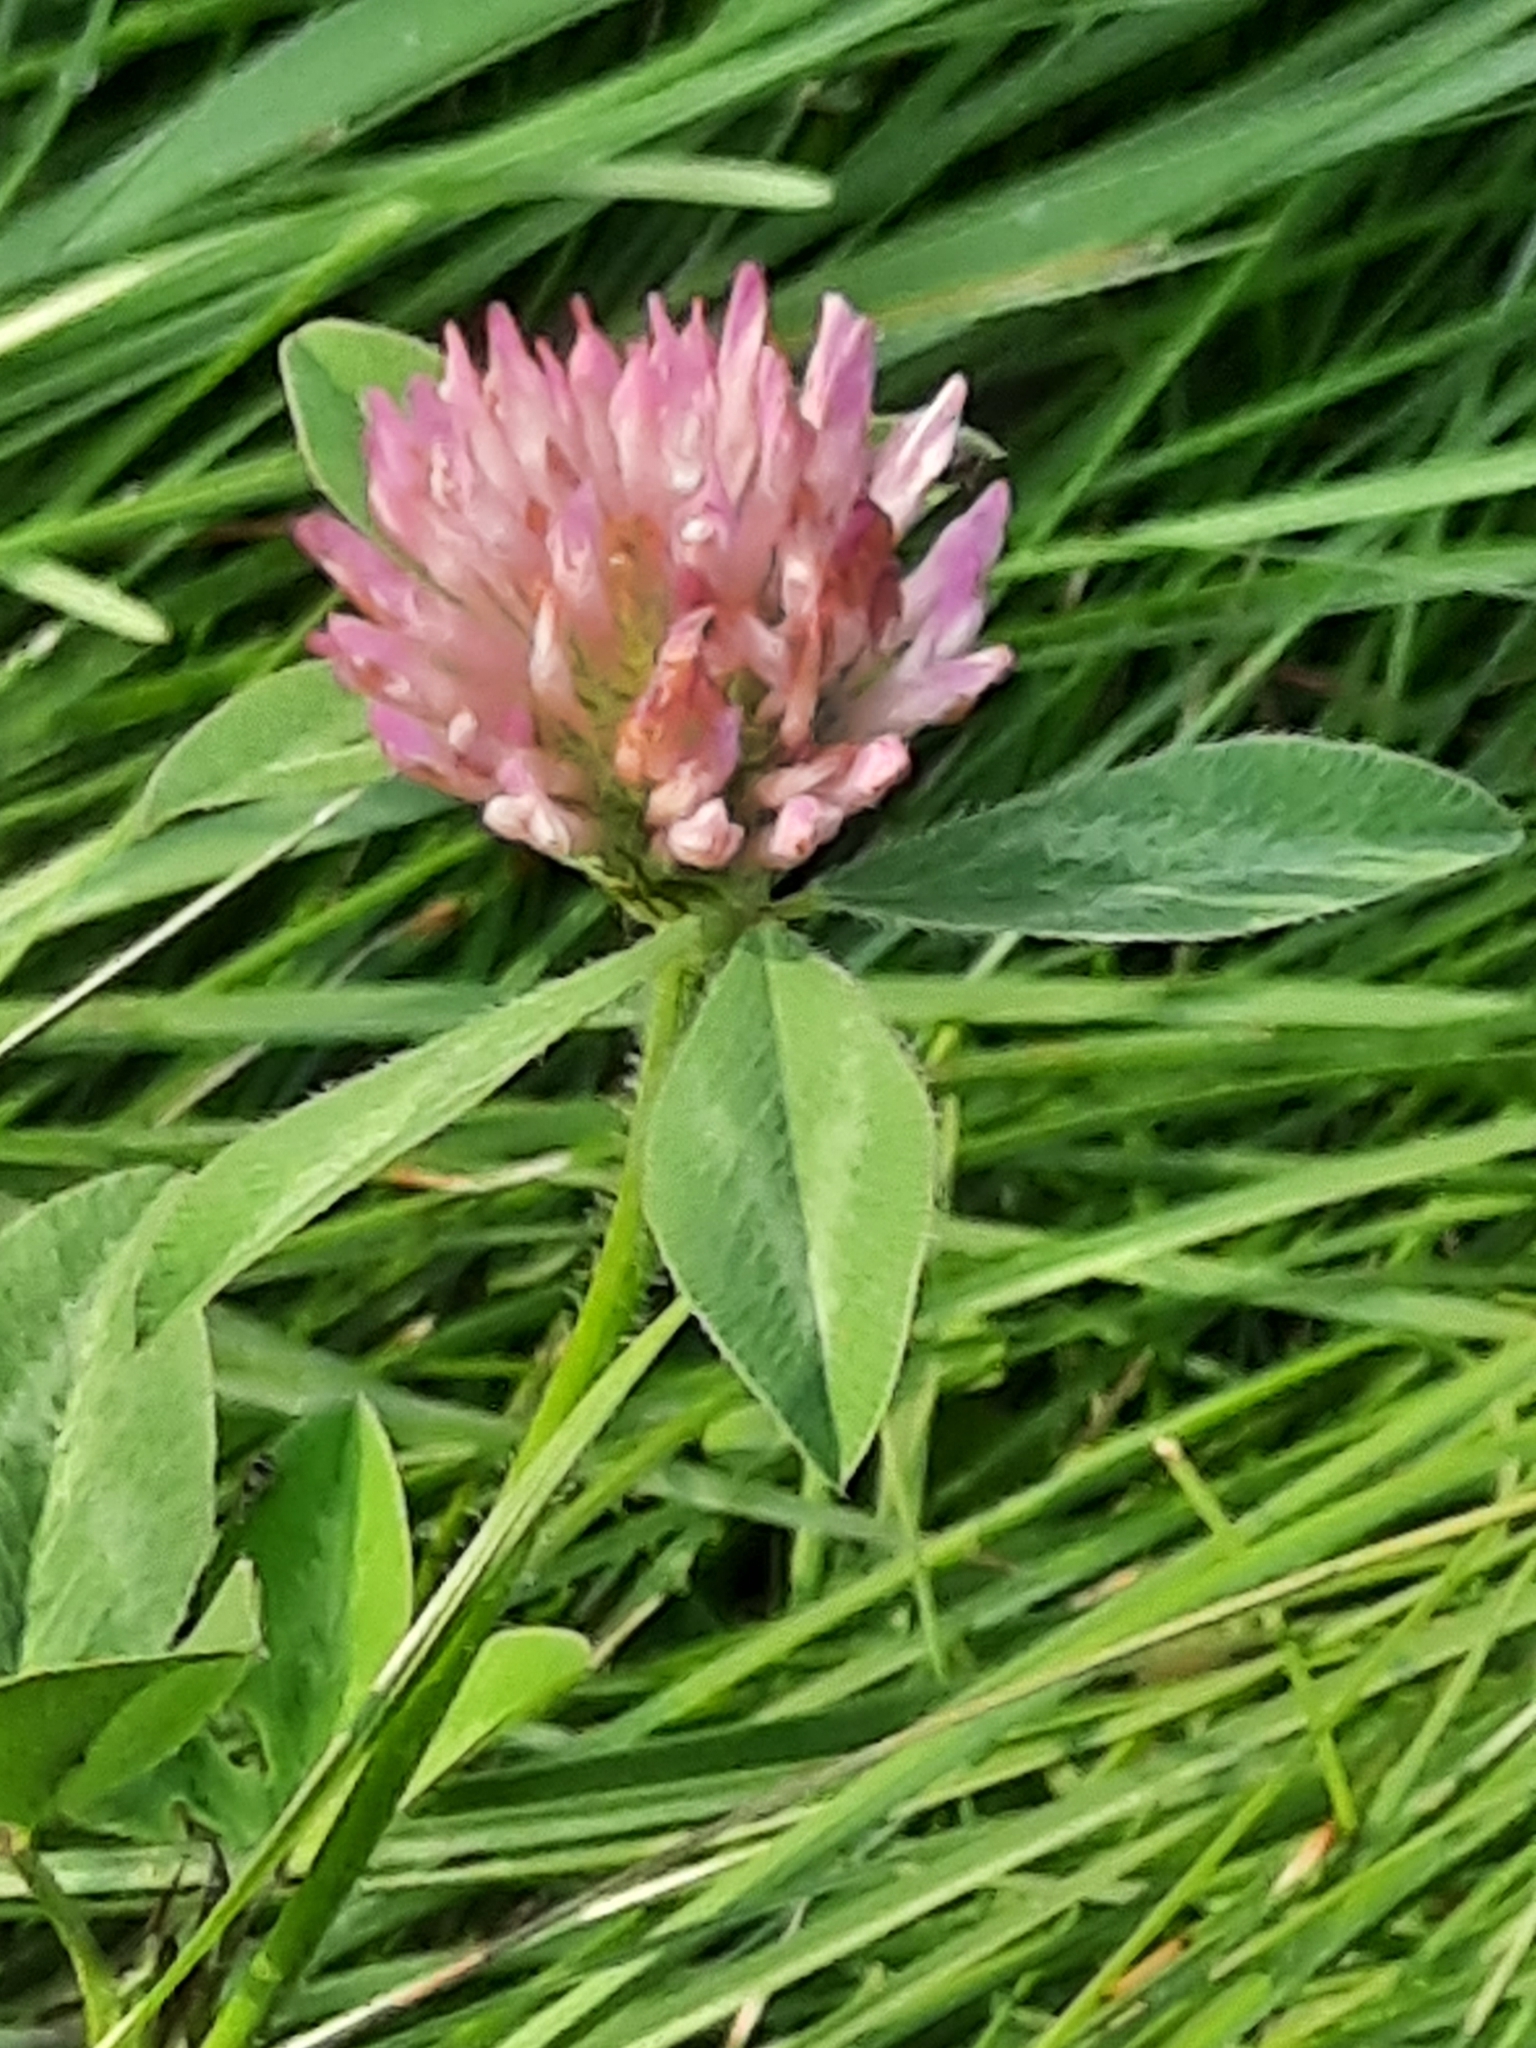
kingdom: Plantae
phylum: Tracheophyta
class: Magnoliopsida
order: Fabales
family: Fabaceae
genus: Trifolium
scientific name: Trifolium pratense
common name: Red clover
